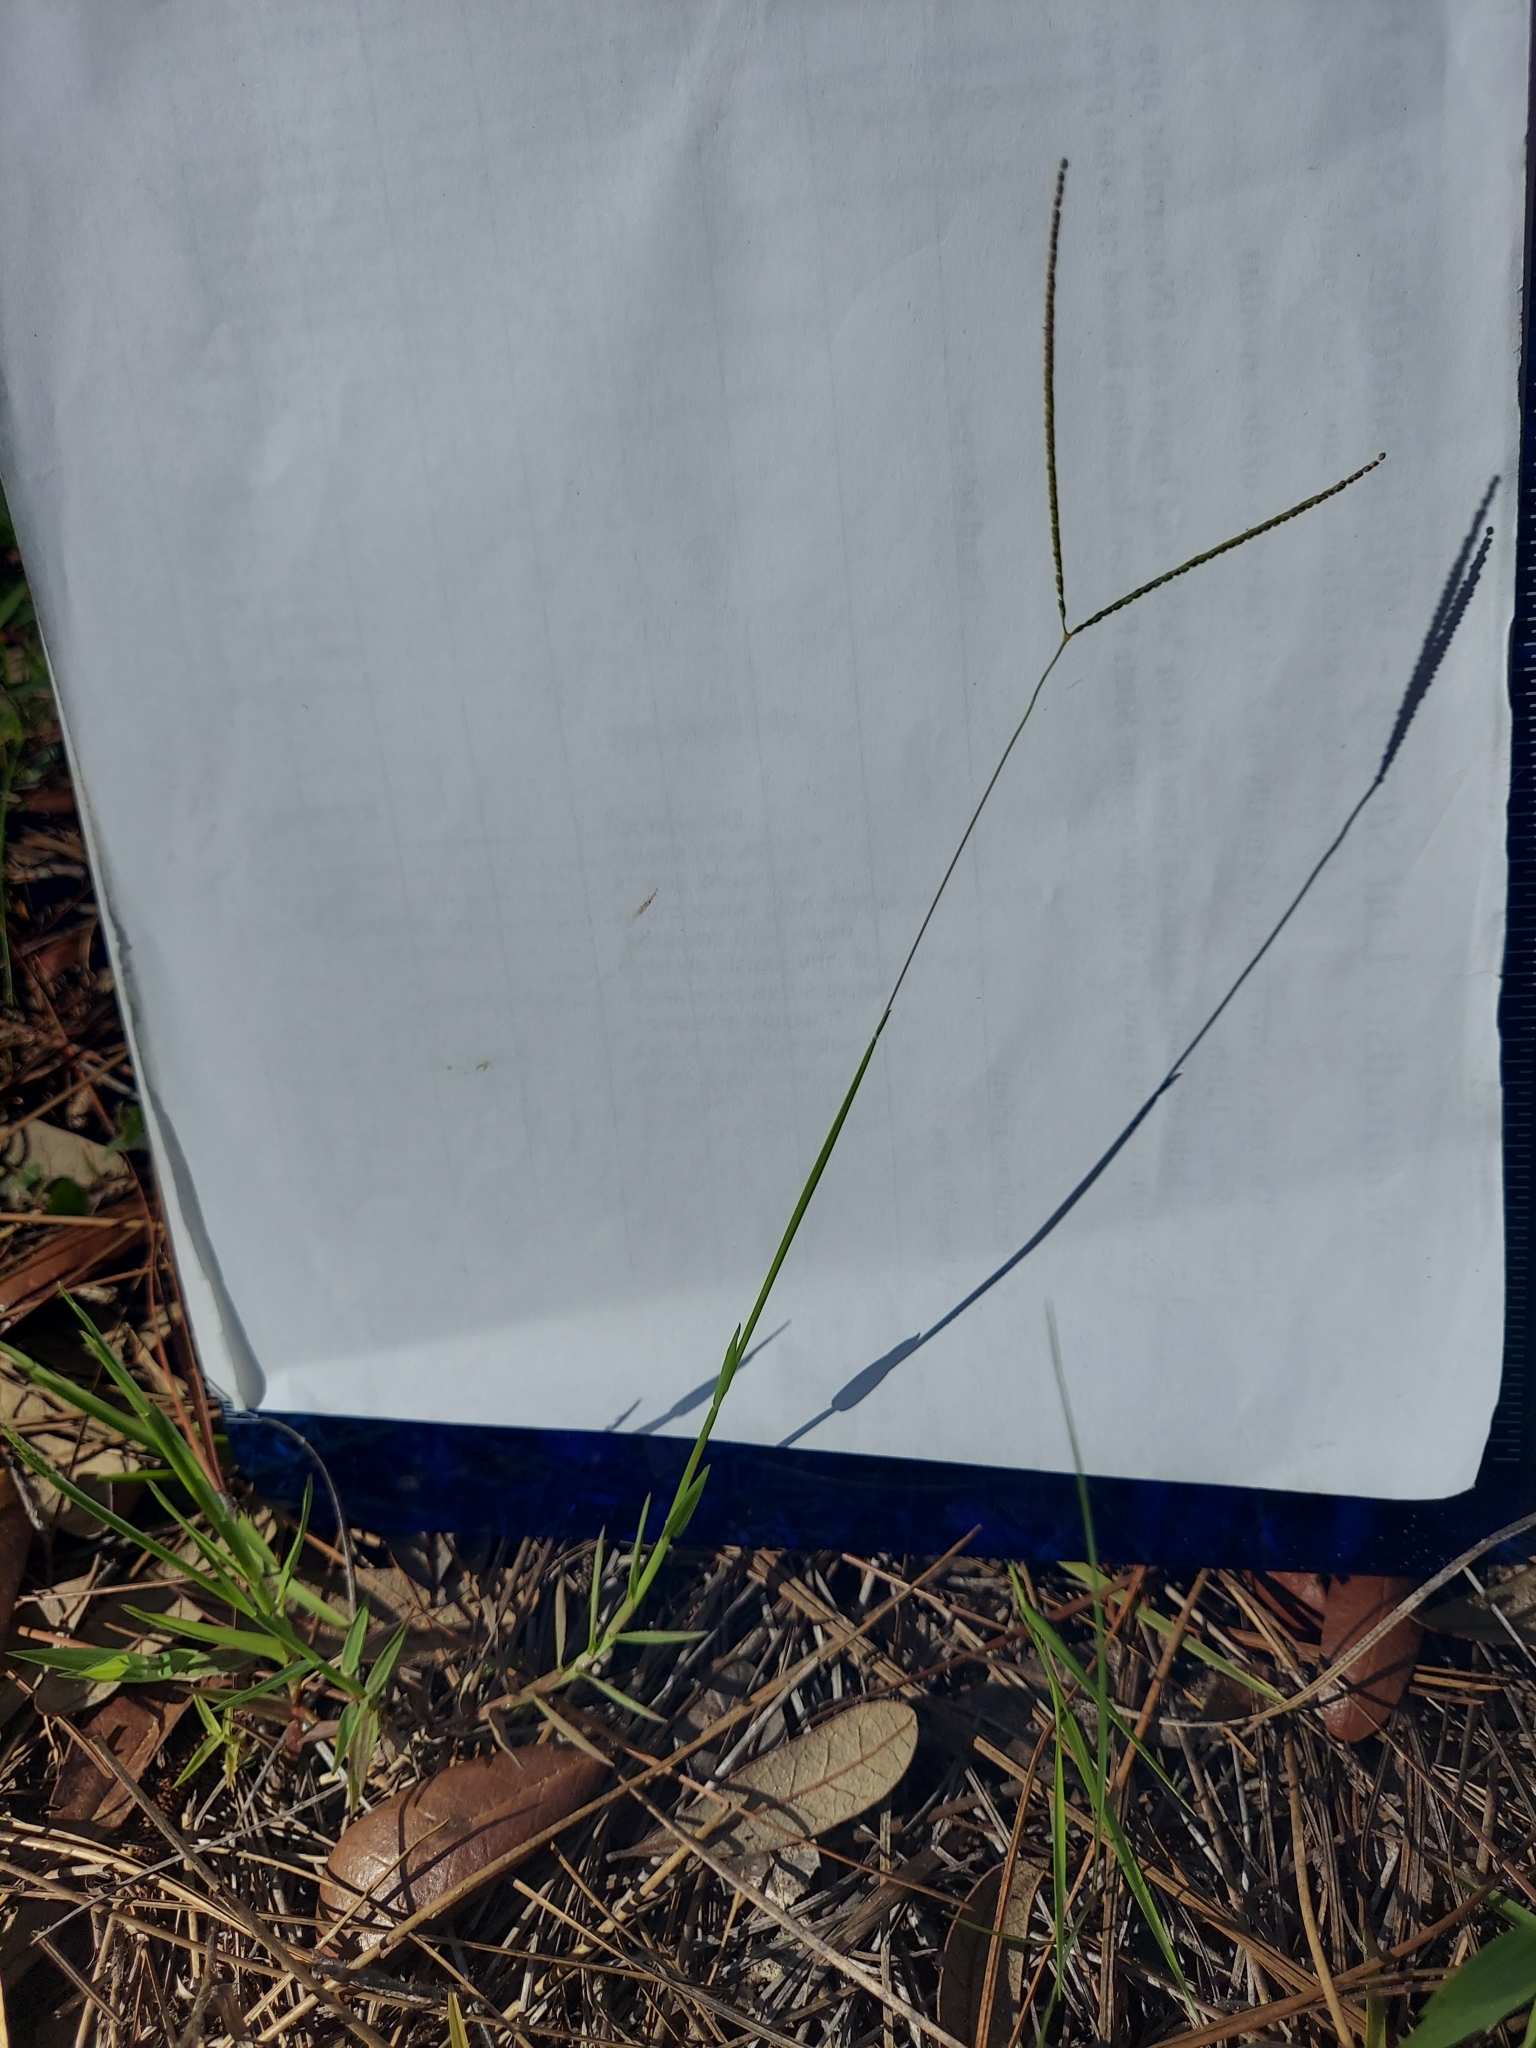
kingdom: Plantae
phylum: Tracheophyta
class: Liliopsida
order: Poales
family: Poaceae
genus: Digitaria
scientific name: Digitaria longiflora
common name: Wire crabgrass
